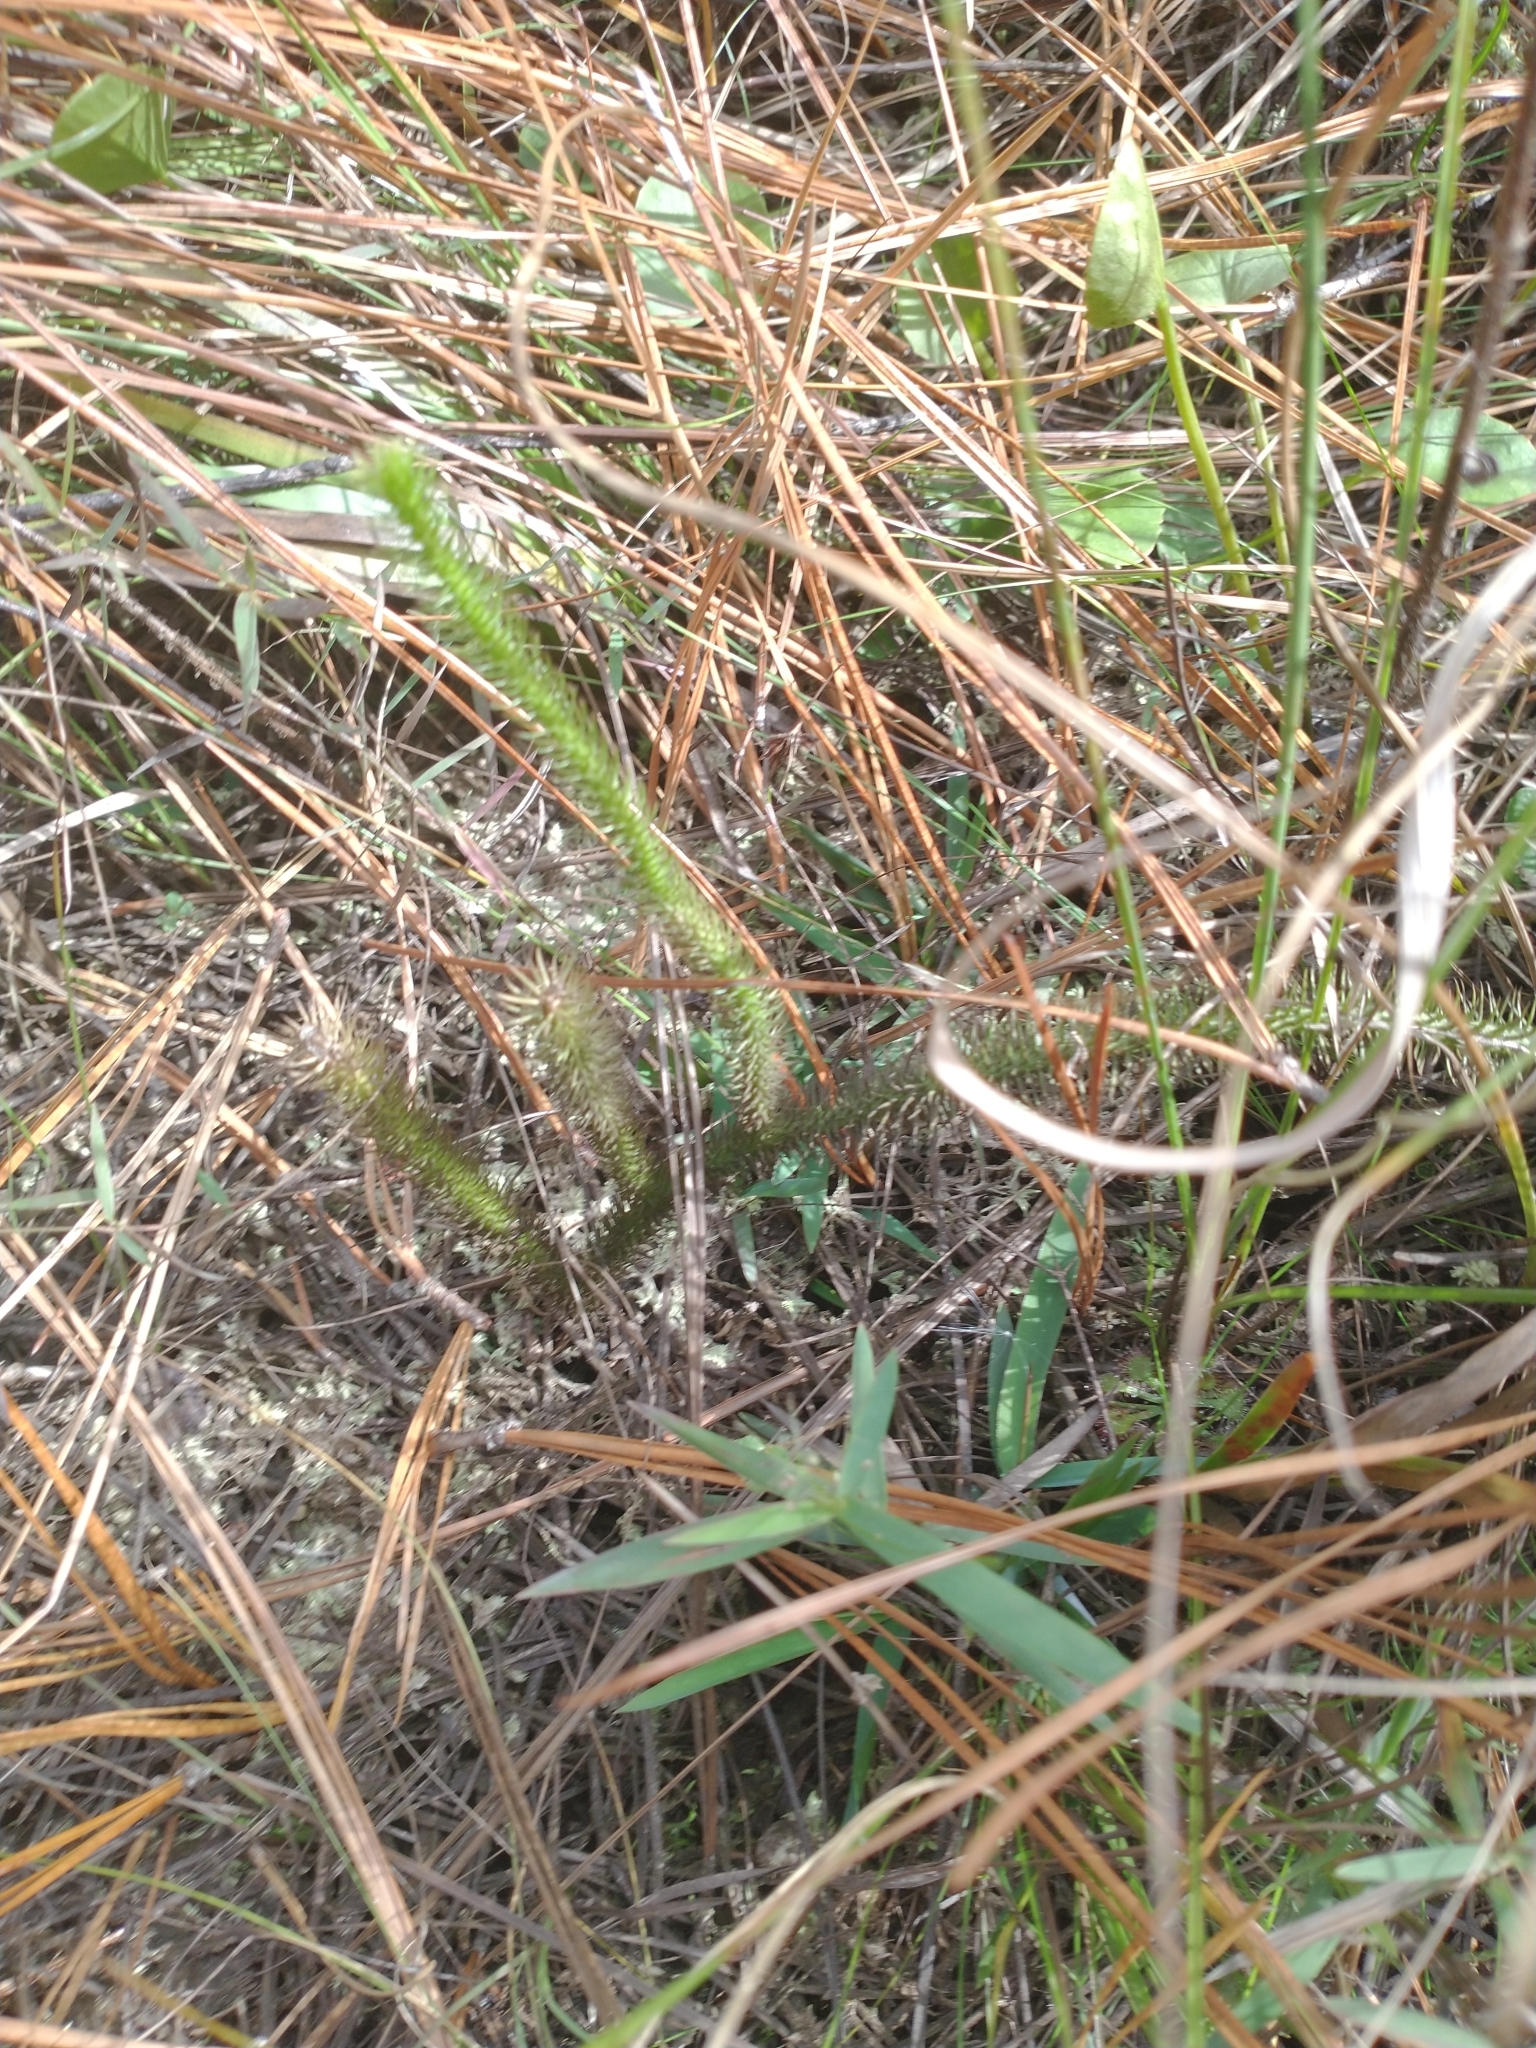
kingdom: Plantae
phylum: Tracheophyta
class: Lycopodiopsida
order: Lycopodiales
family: Lycopodiaceae
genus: Lycopodiella
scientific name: Lycopodiella alopecuroides
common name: Foxtail clubmoss
